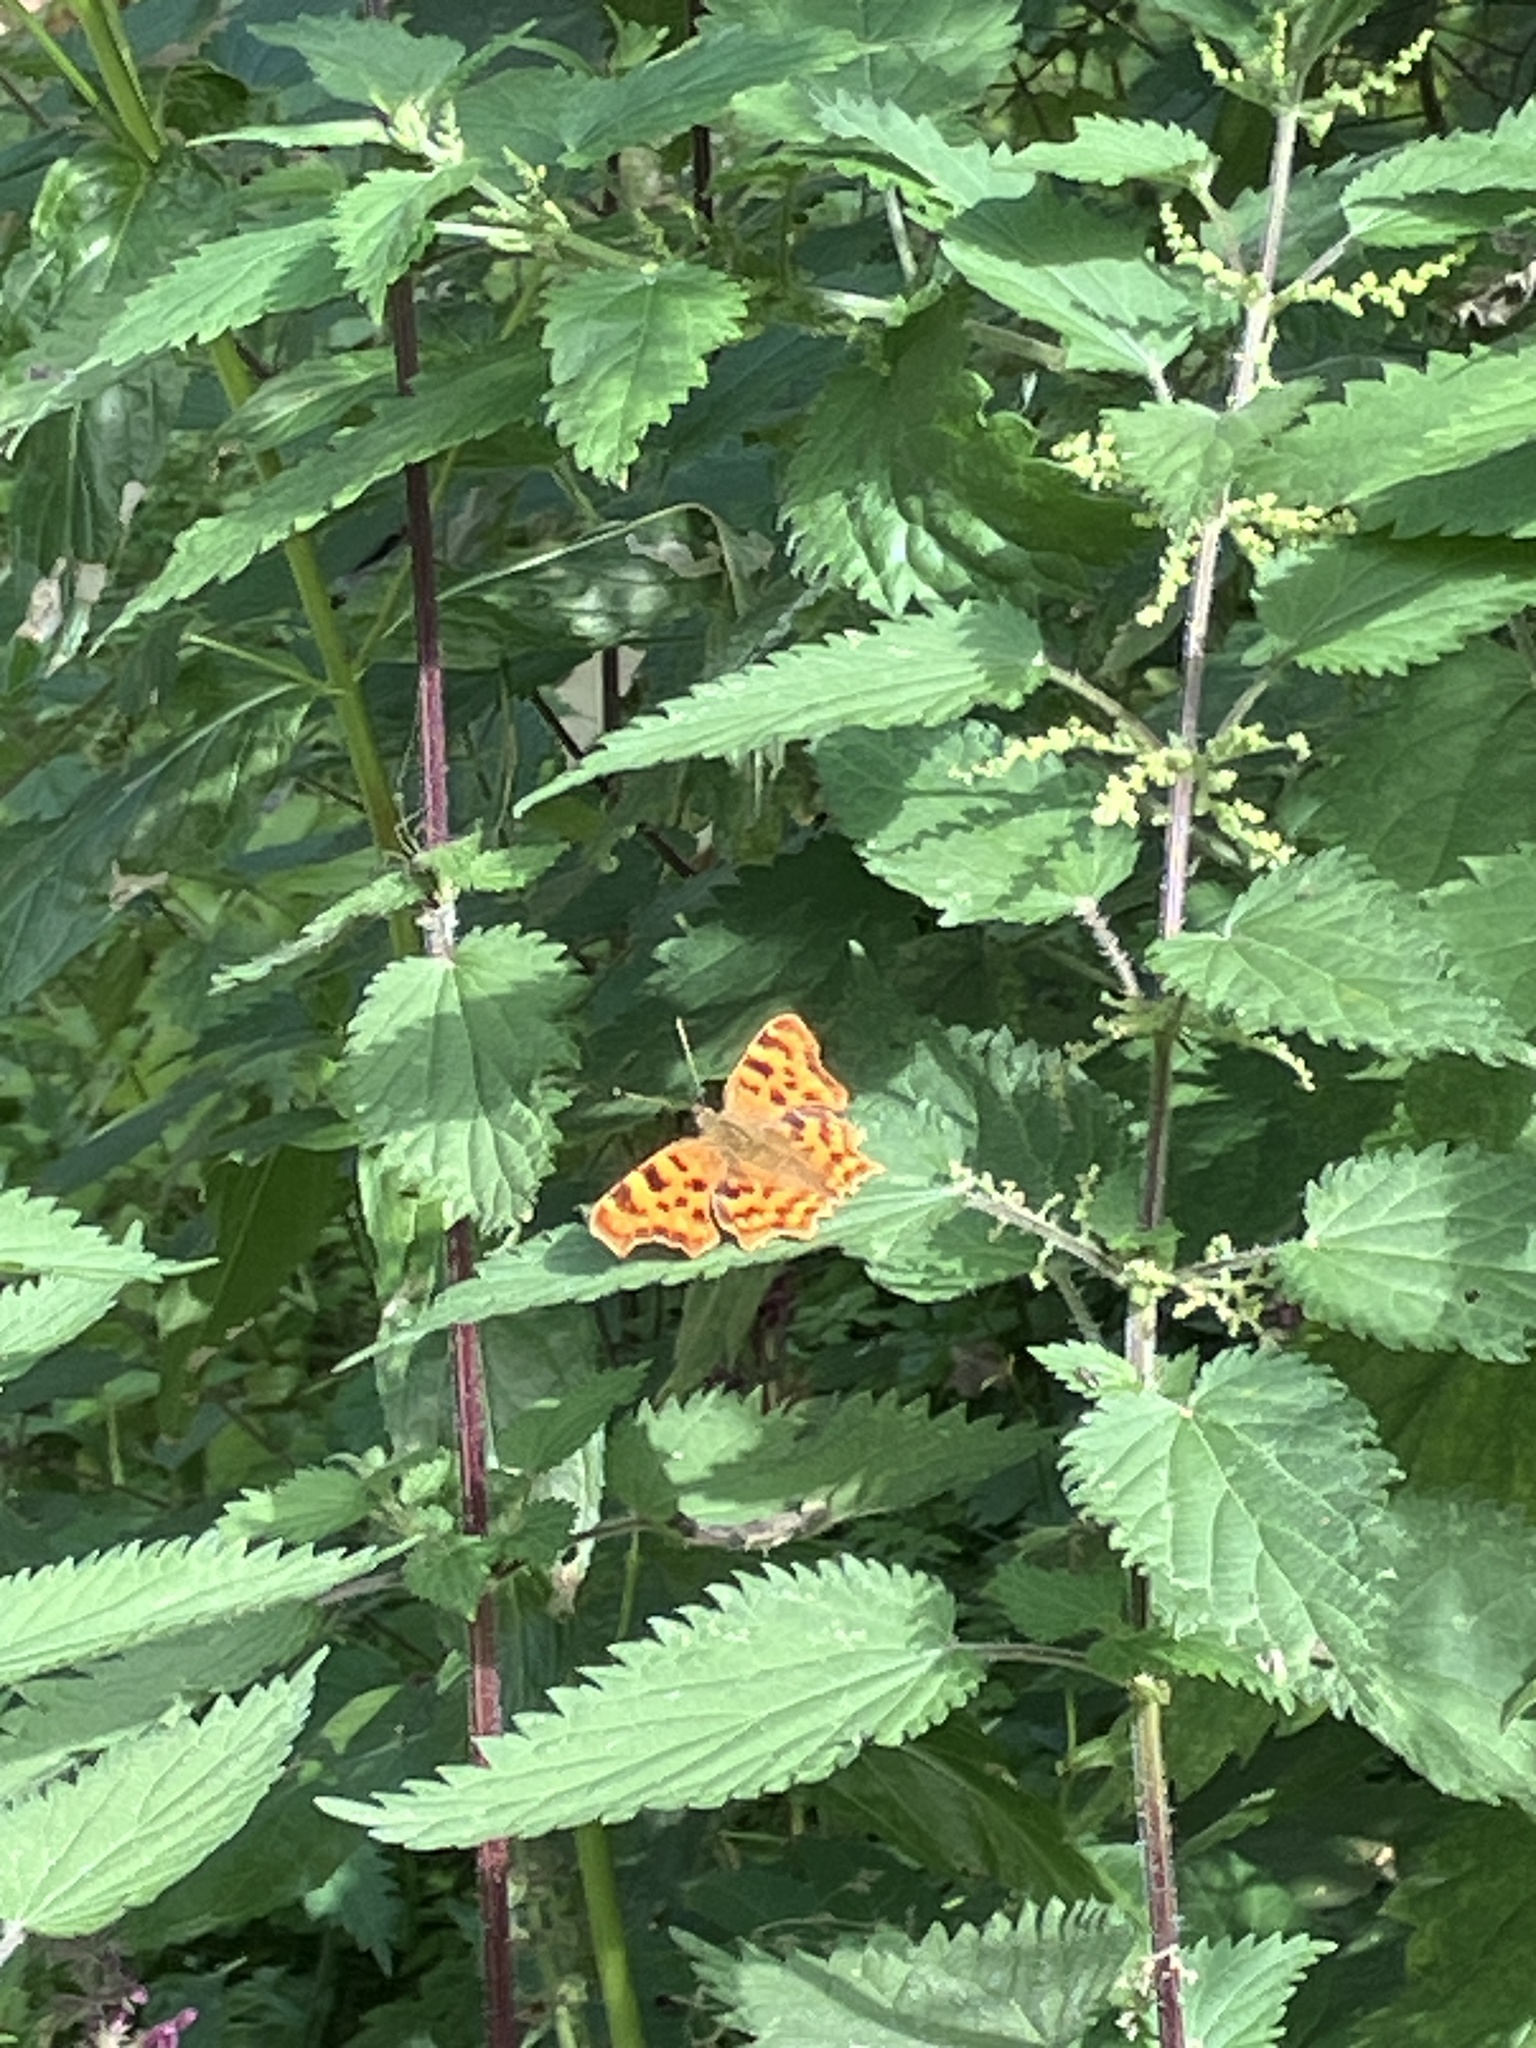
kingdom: Animalia
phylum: Arthropoda
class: Insecta
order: Lepidoptera
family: Nymphalidae
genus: Polygonia
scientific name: Polygonia c-album
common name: Comma
